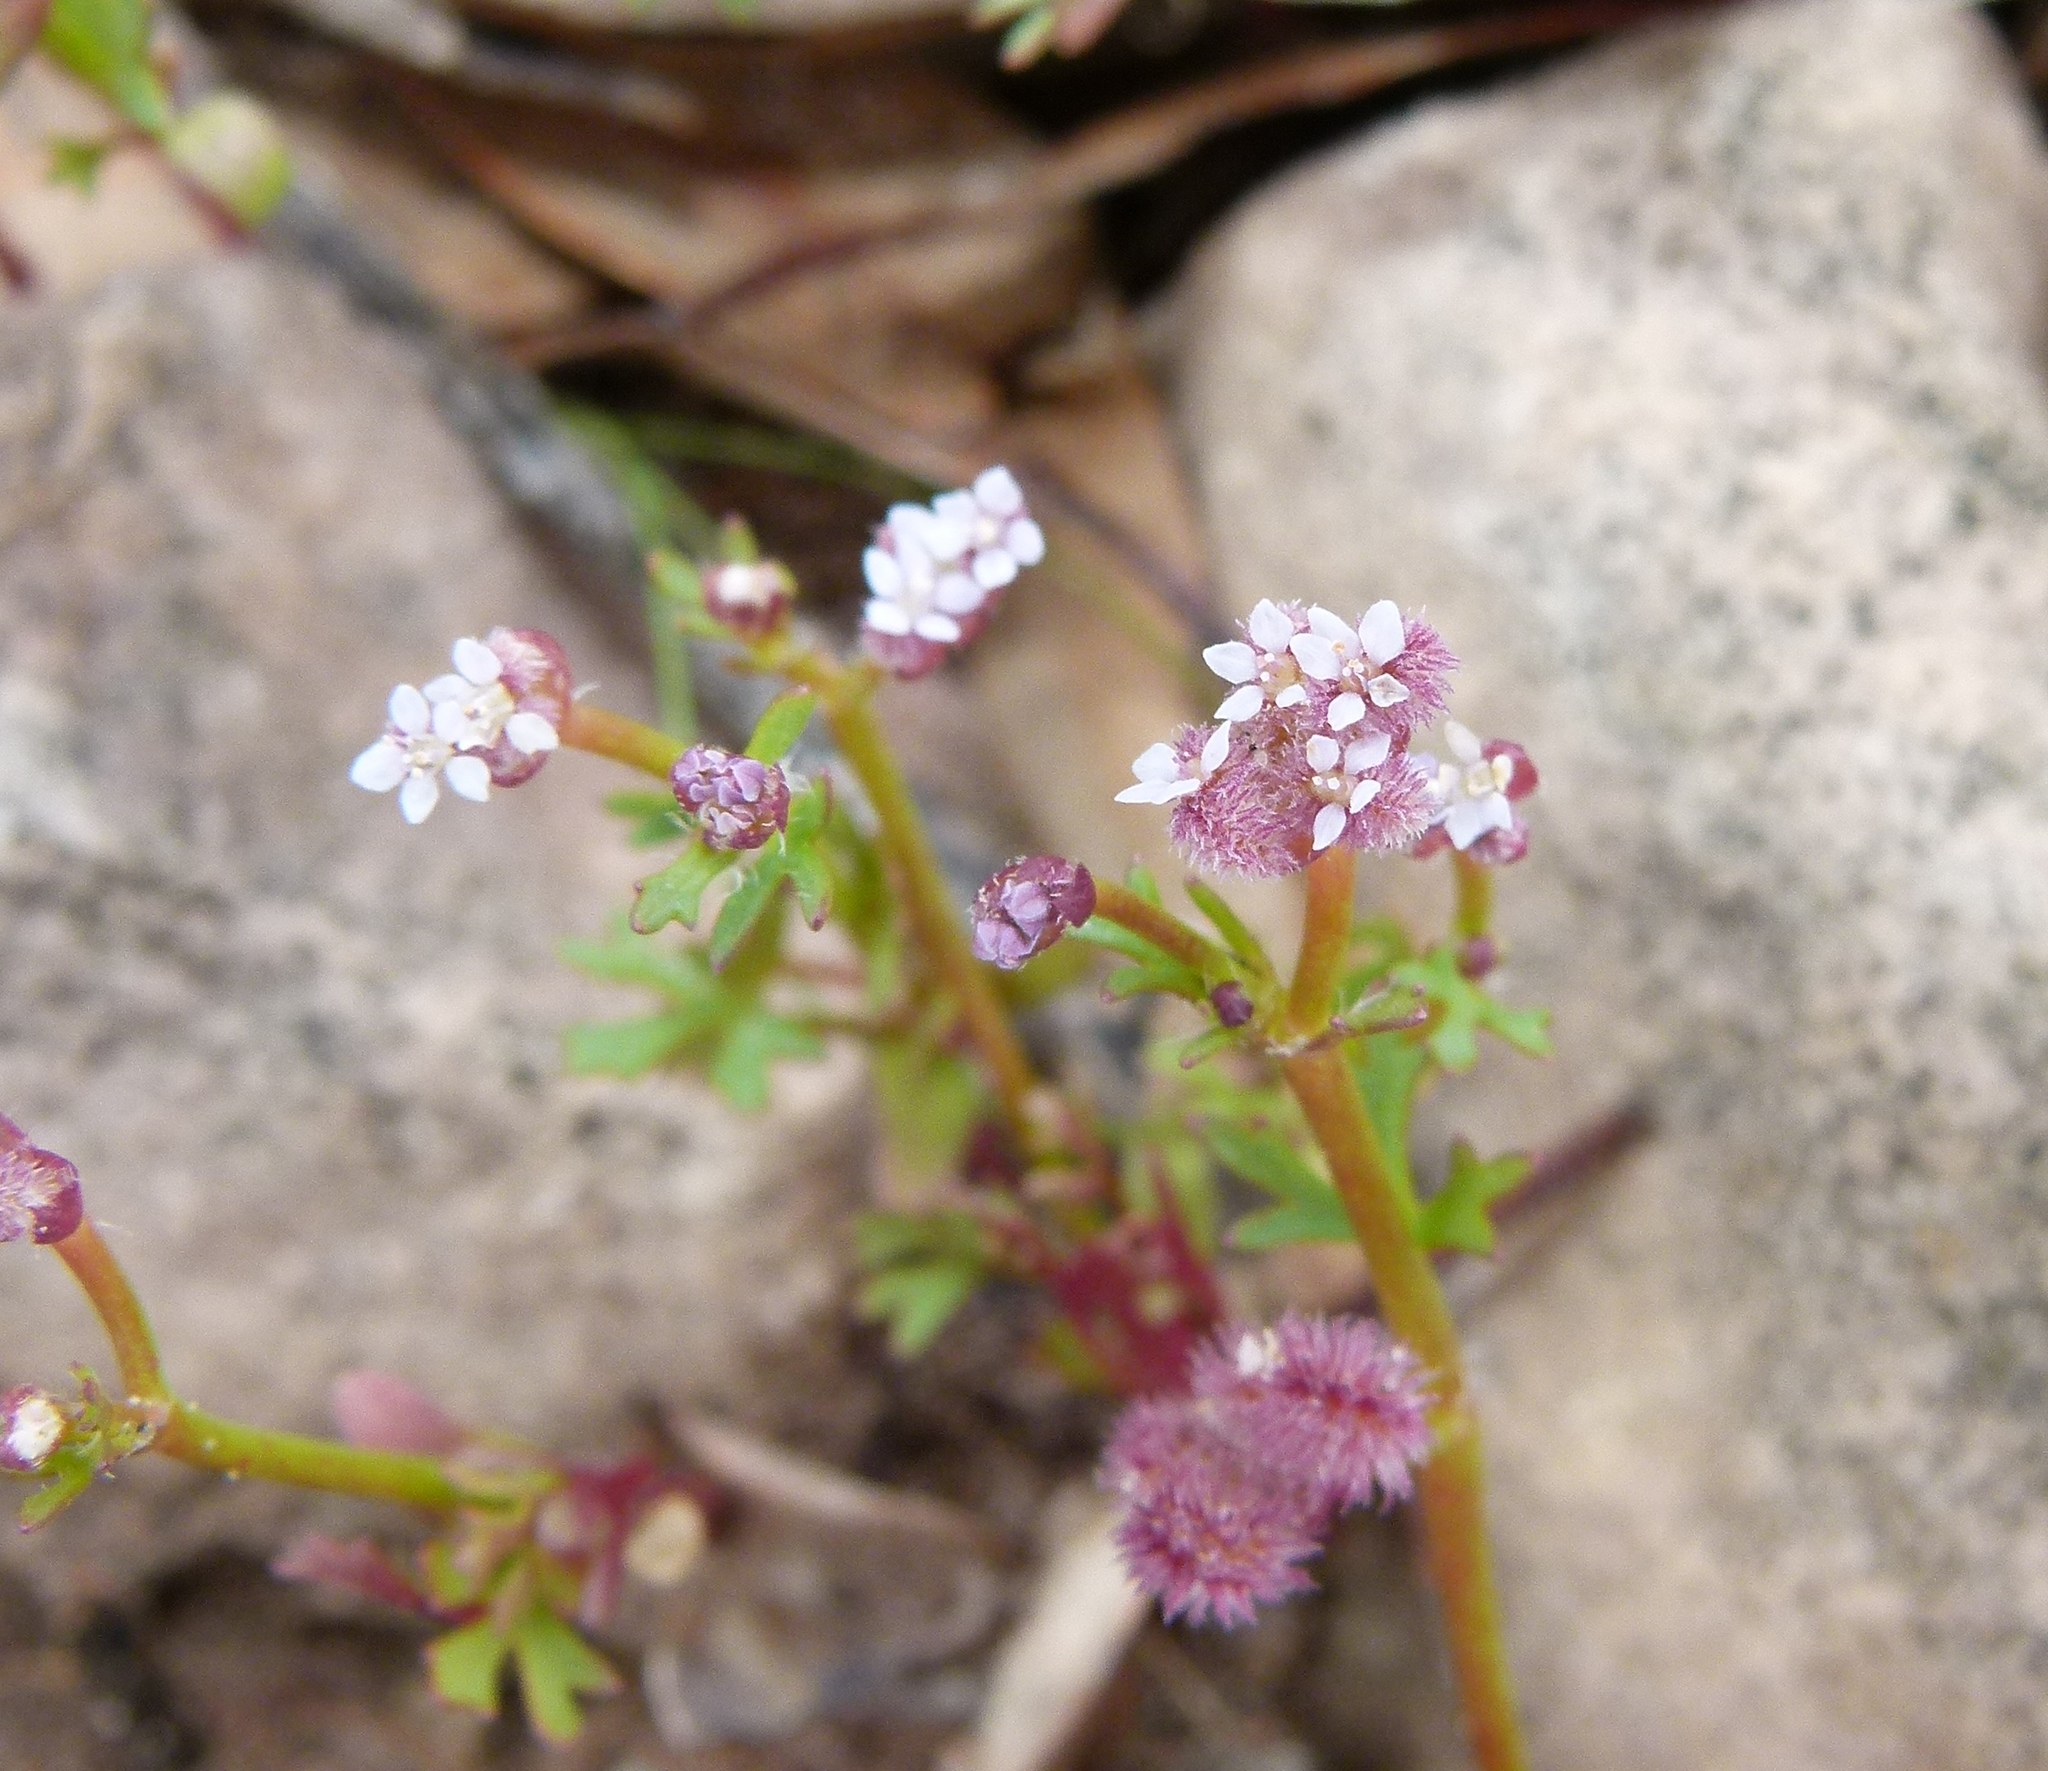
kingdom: Plantae
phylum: Tracheophyta
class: Magnoliopsida
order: Apiales
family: Araliaceae
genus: Trachymene
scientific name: Trachymene cyanopetala
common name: Purple trachymene
